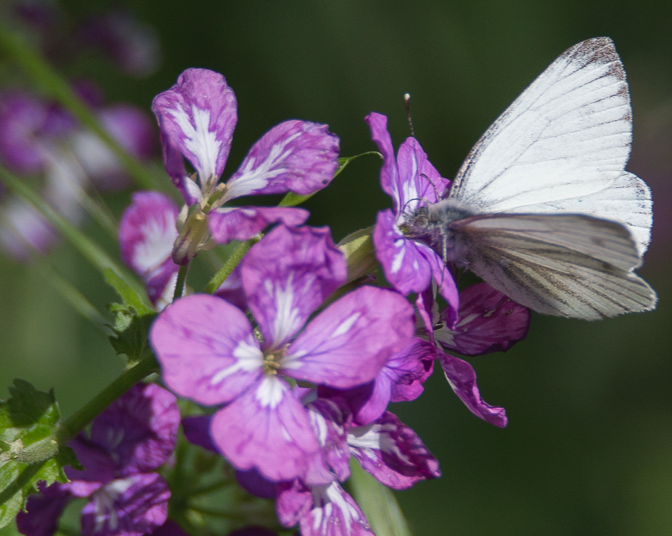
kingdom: Animalia
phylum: Arthropoda
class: Insecta
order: Lepidoptera
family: Pieridae
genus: Pieris
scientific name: Pieris napi
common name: Green-veined white
